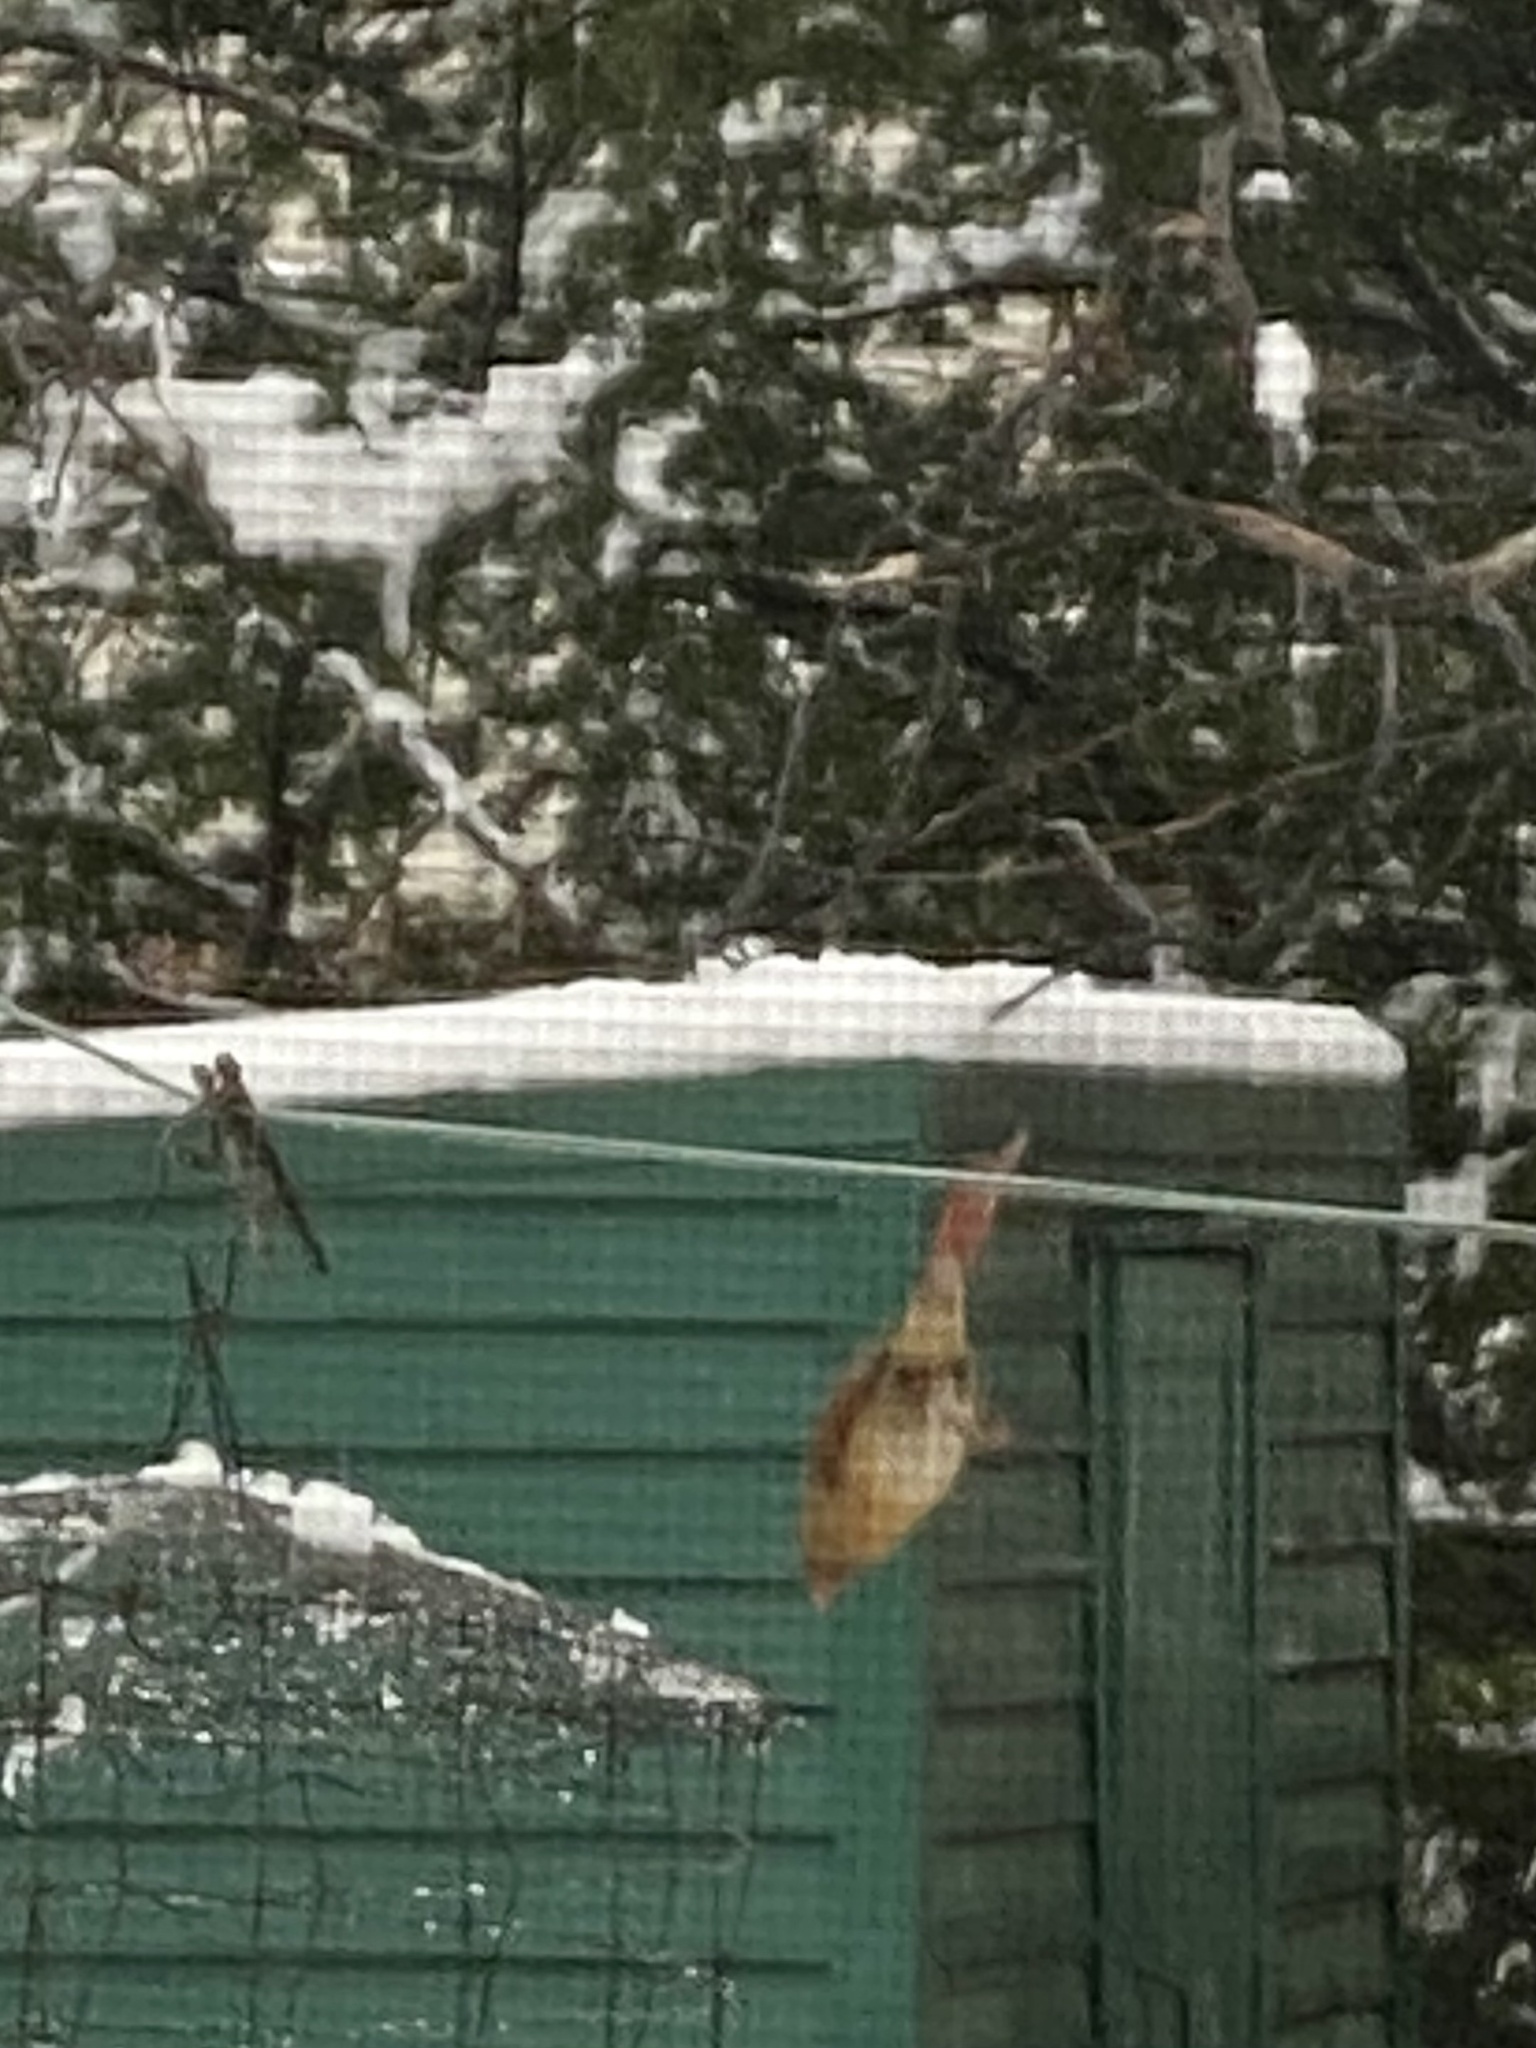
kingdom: Animalia
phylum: Chordata
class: Aves
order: Passeriformes
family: Cardinalidae
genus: Cardinalis
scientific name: Cardinalis cardinalis
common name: Northern cardinal
